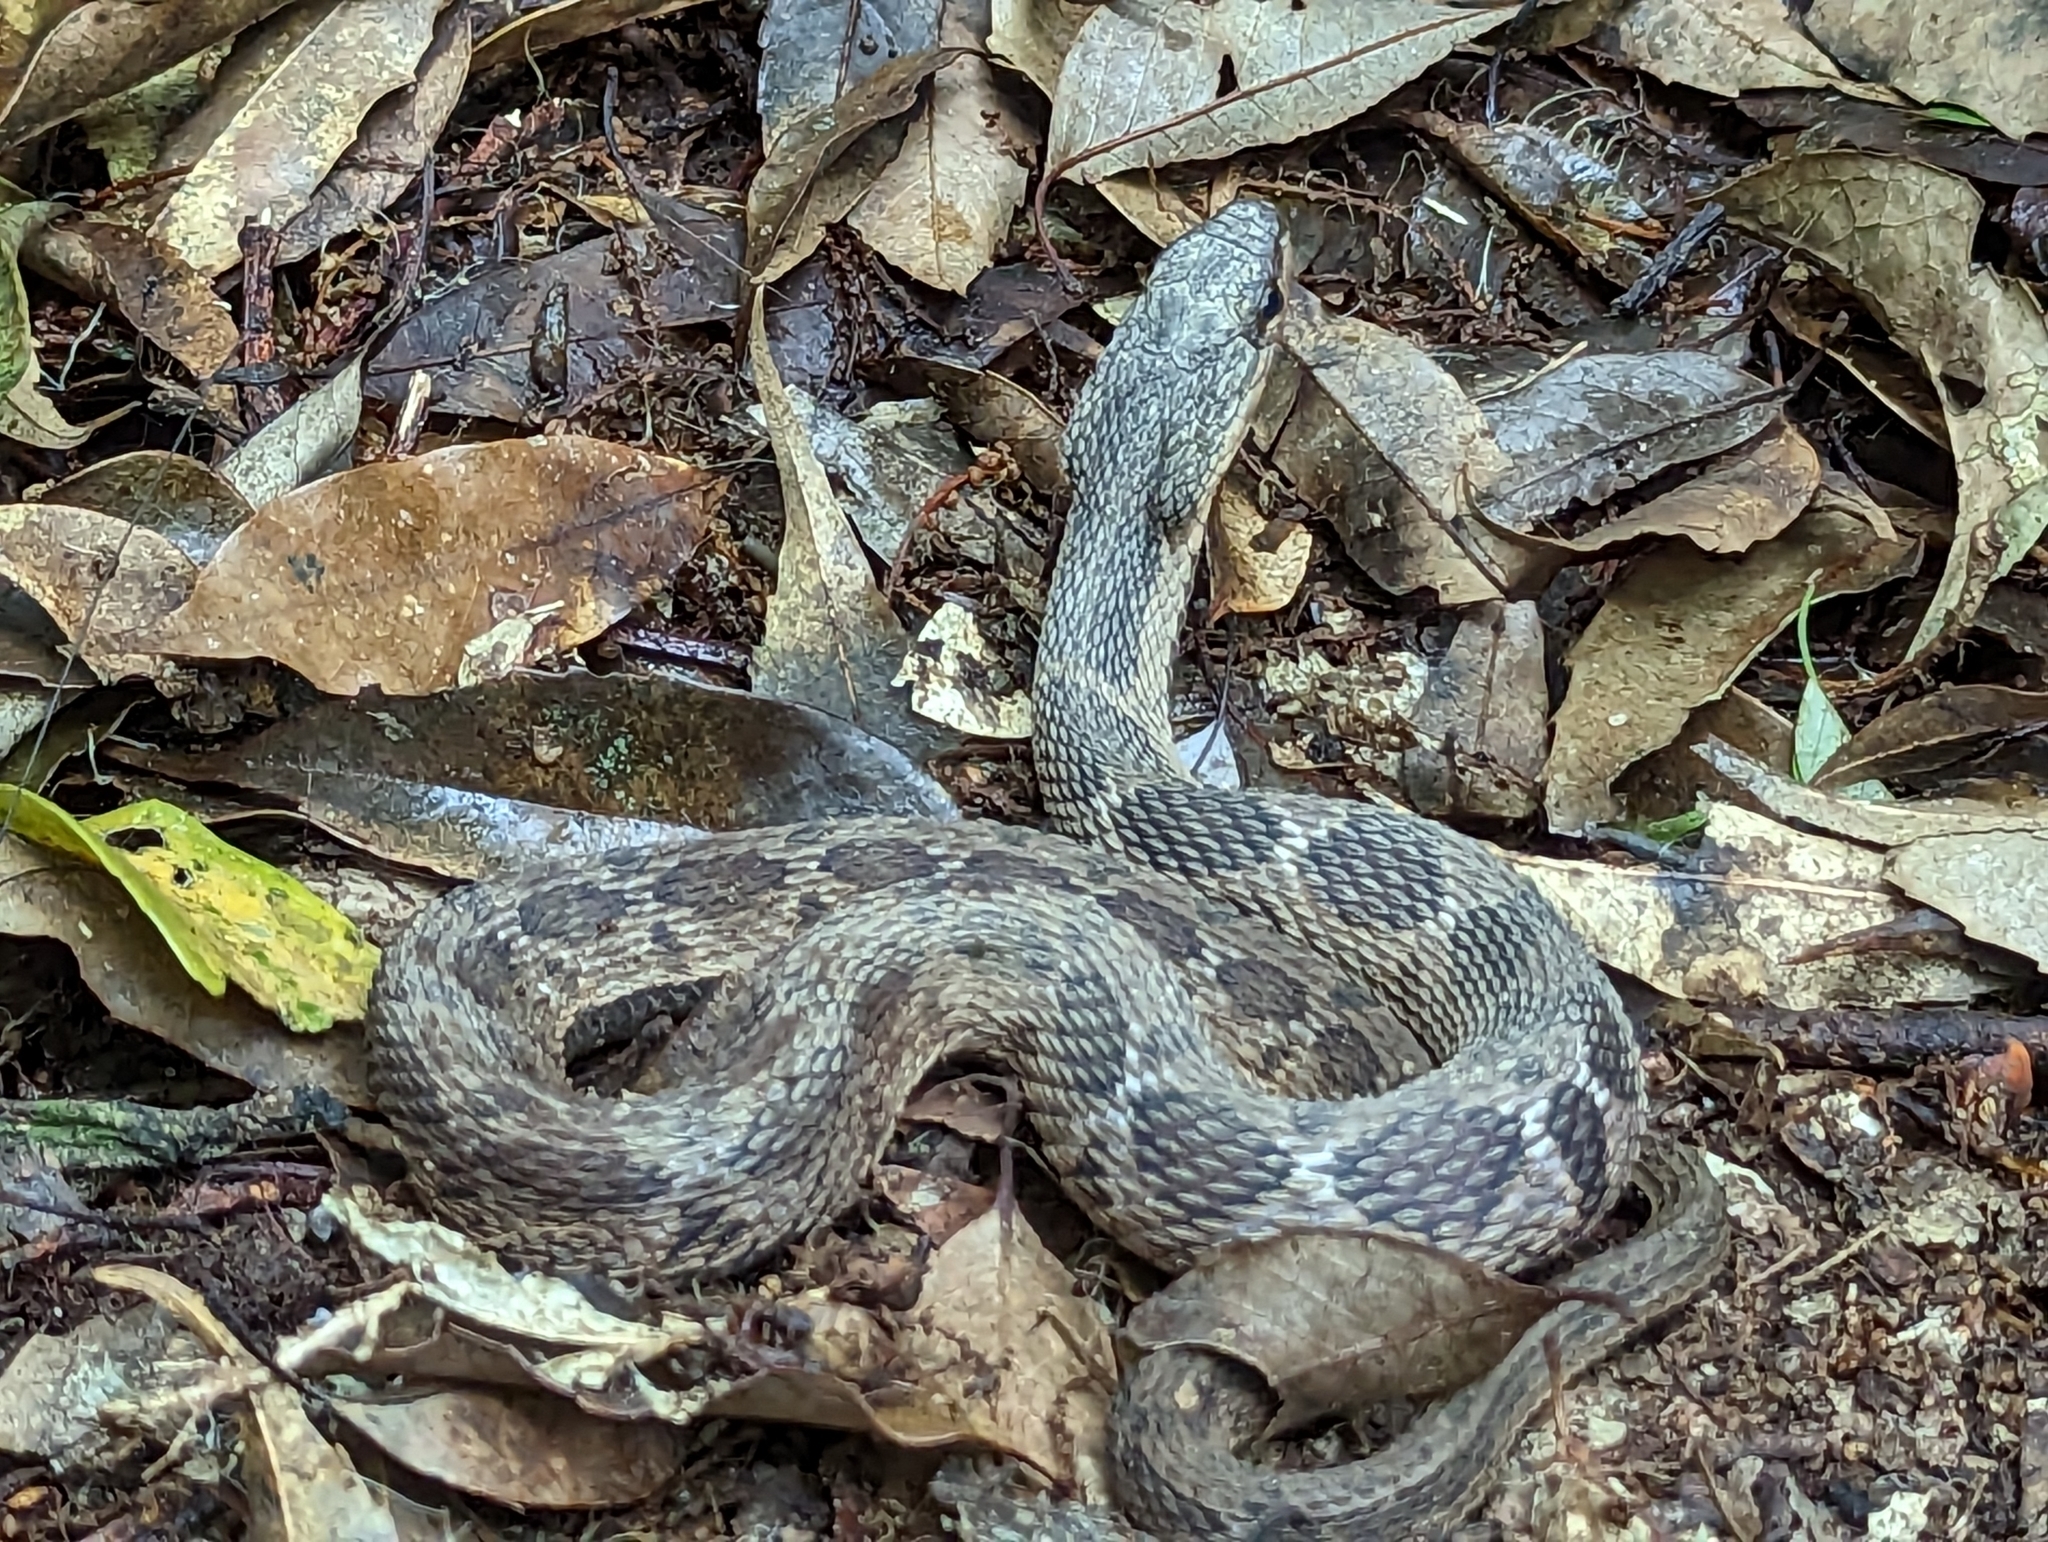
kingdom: Animalia
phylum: Chordata
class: Squamata
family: Colubridae
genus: Pseudagkistrodon
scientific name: Pseudagkistrodon rudis
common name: False habu
